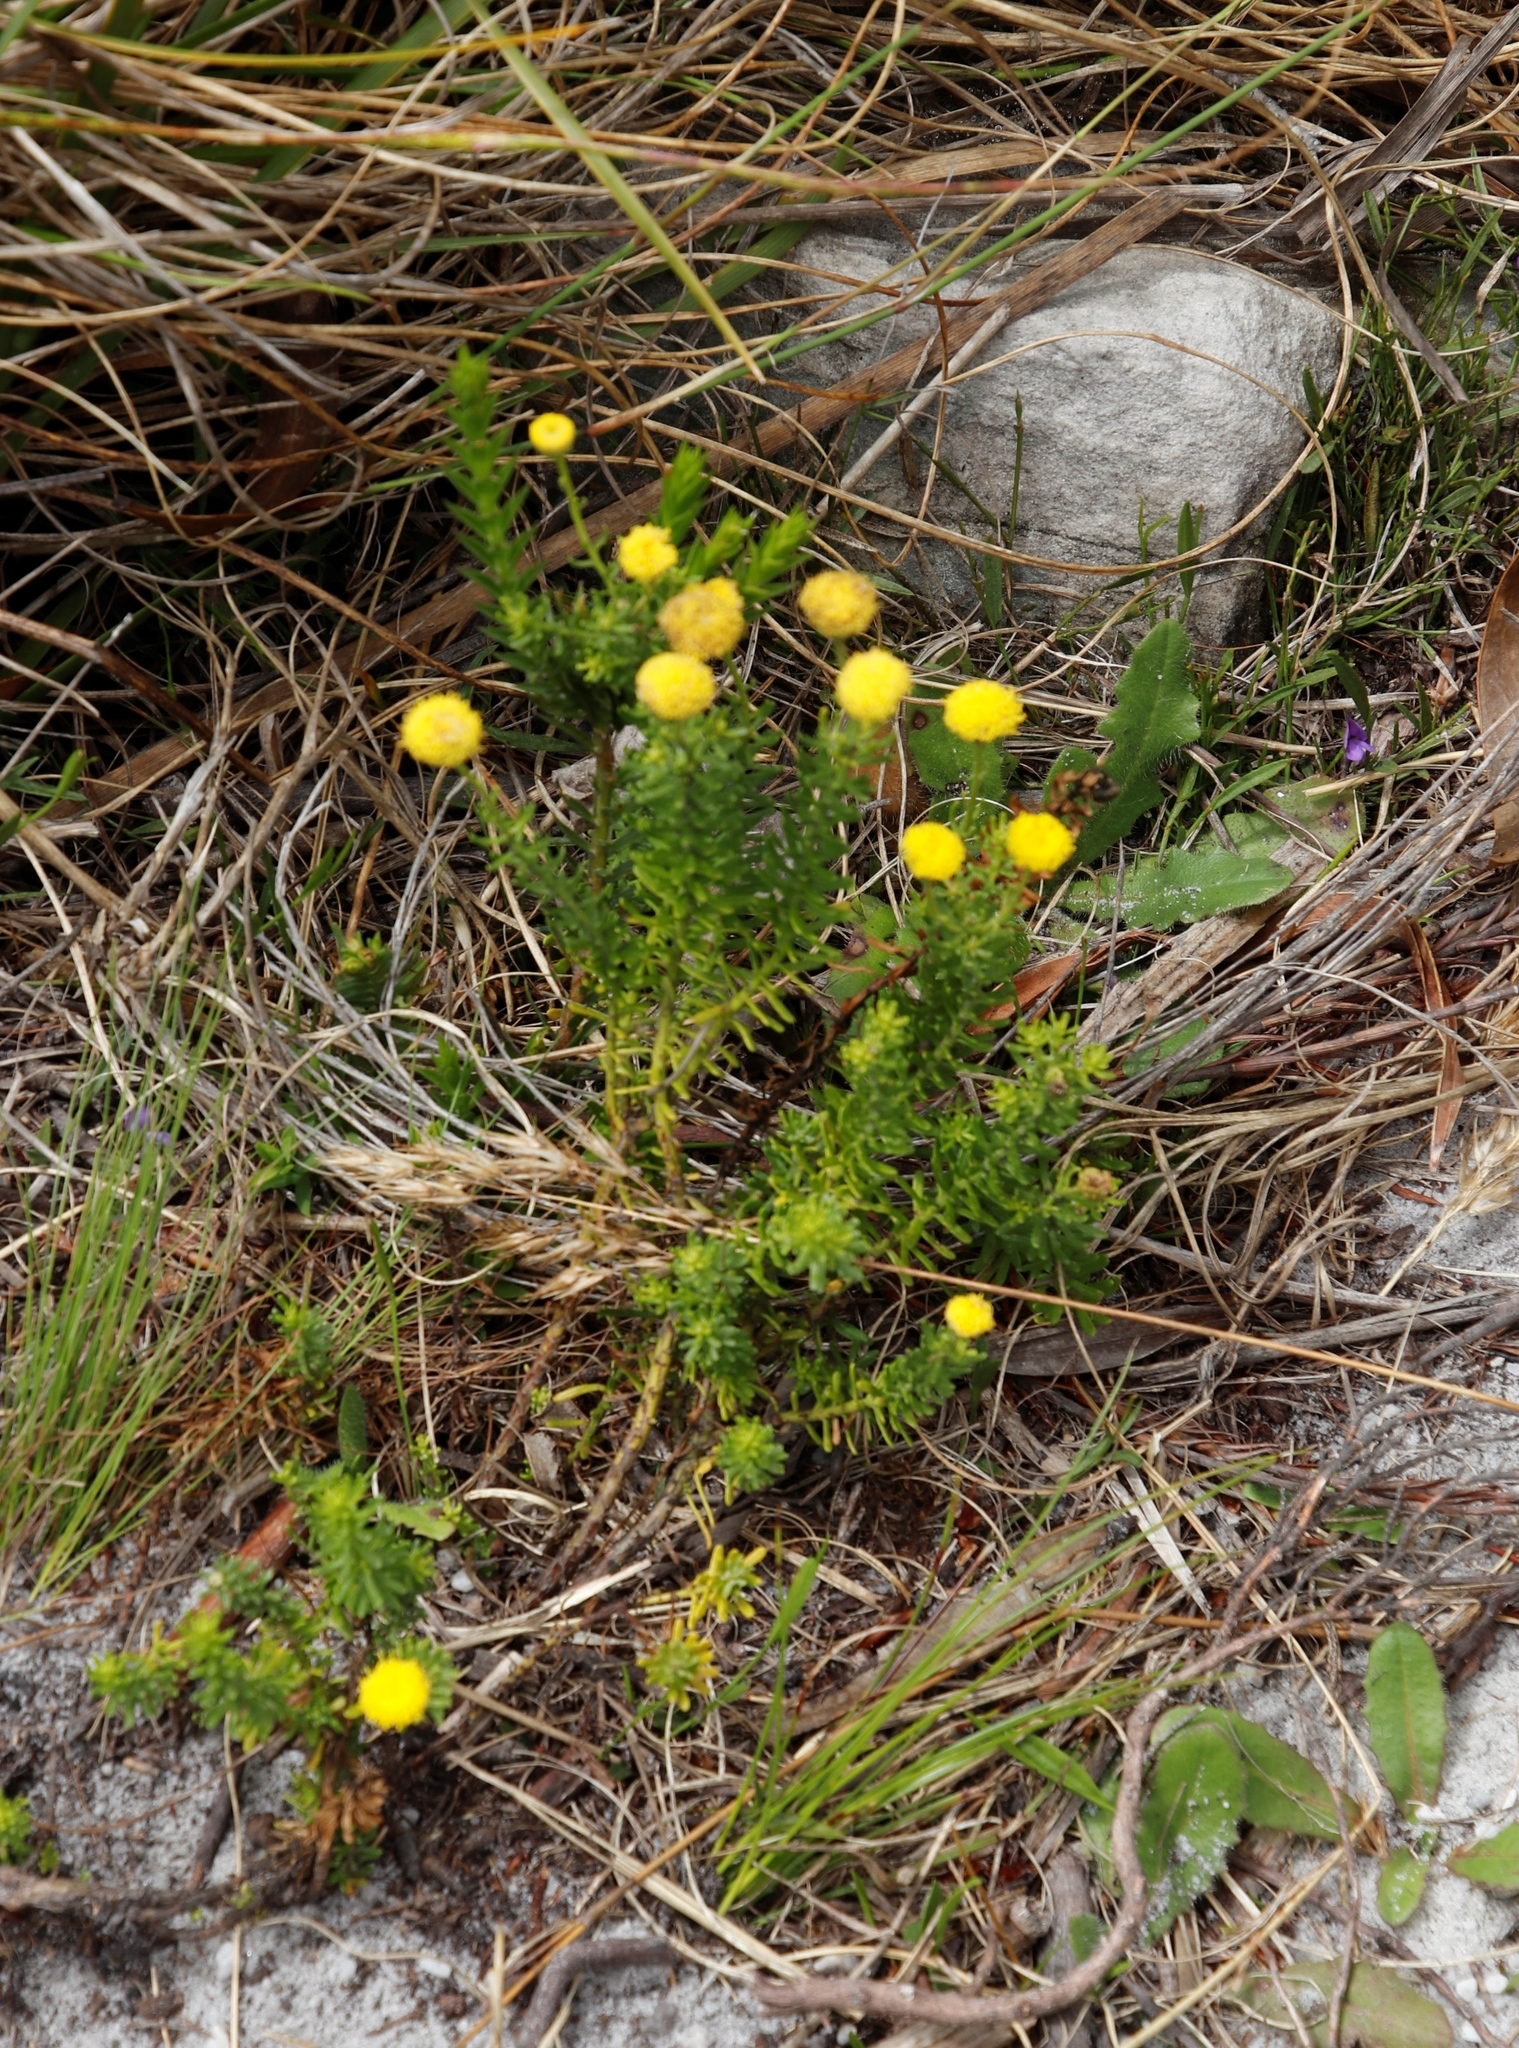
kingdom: Plantae
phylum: Tracheophyta
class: Magnoliopsida
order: Asterales
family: Asteraceae
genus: Chrysocoma
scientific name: Chrysocoma cernua
